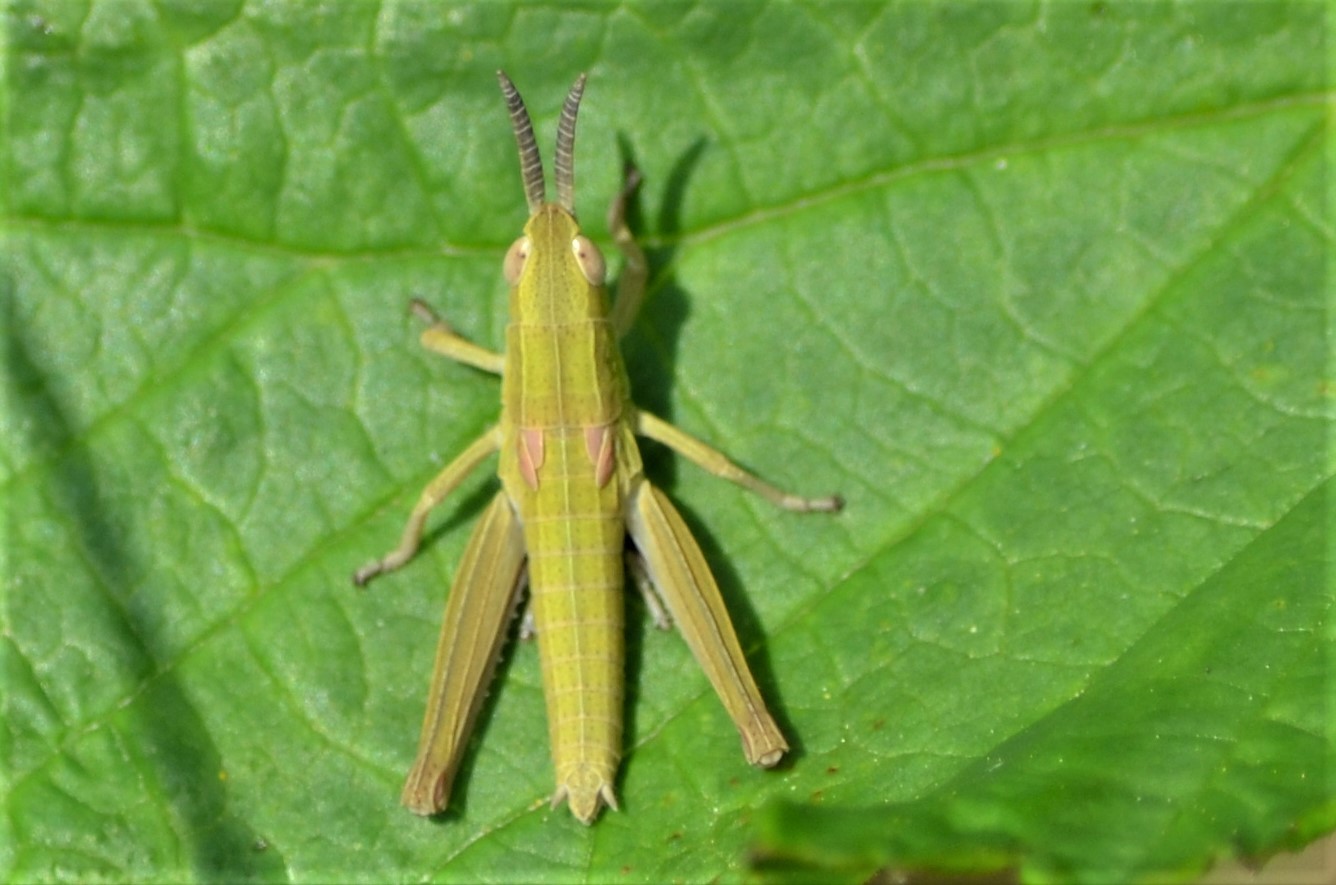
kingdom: Animalia
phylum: Arthropoda
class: Insecta
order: Orthoptera
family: Acrididae
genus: Euthystira
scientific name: Euthystira brachyptera
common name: Small gold grasshopper
